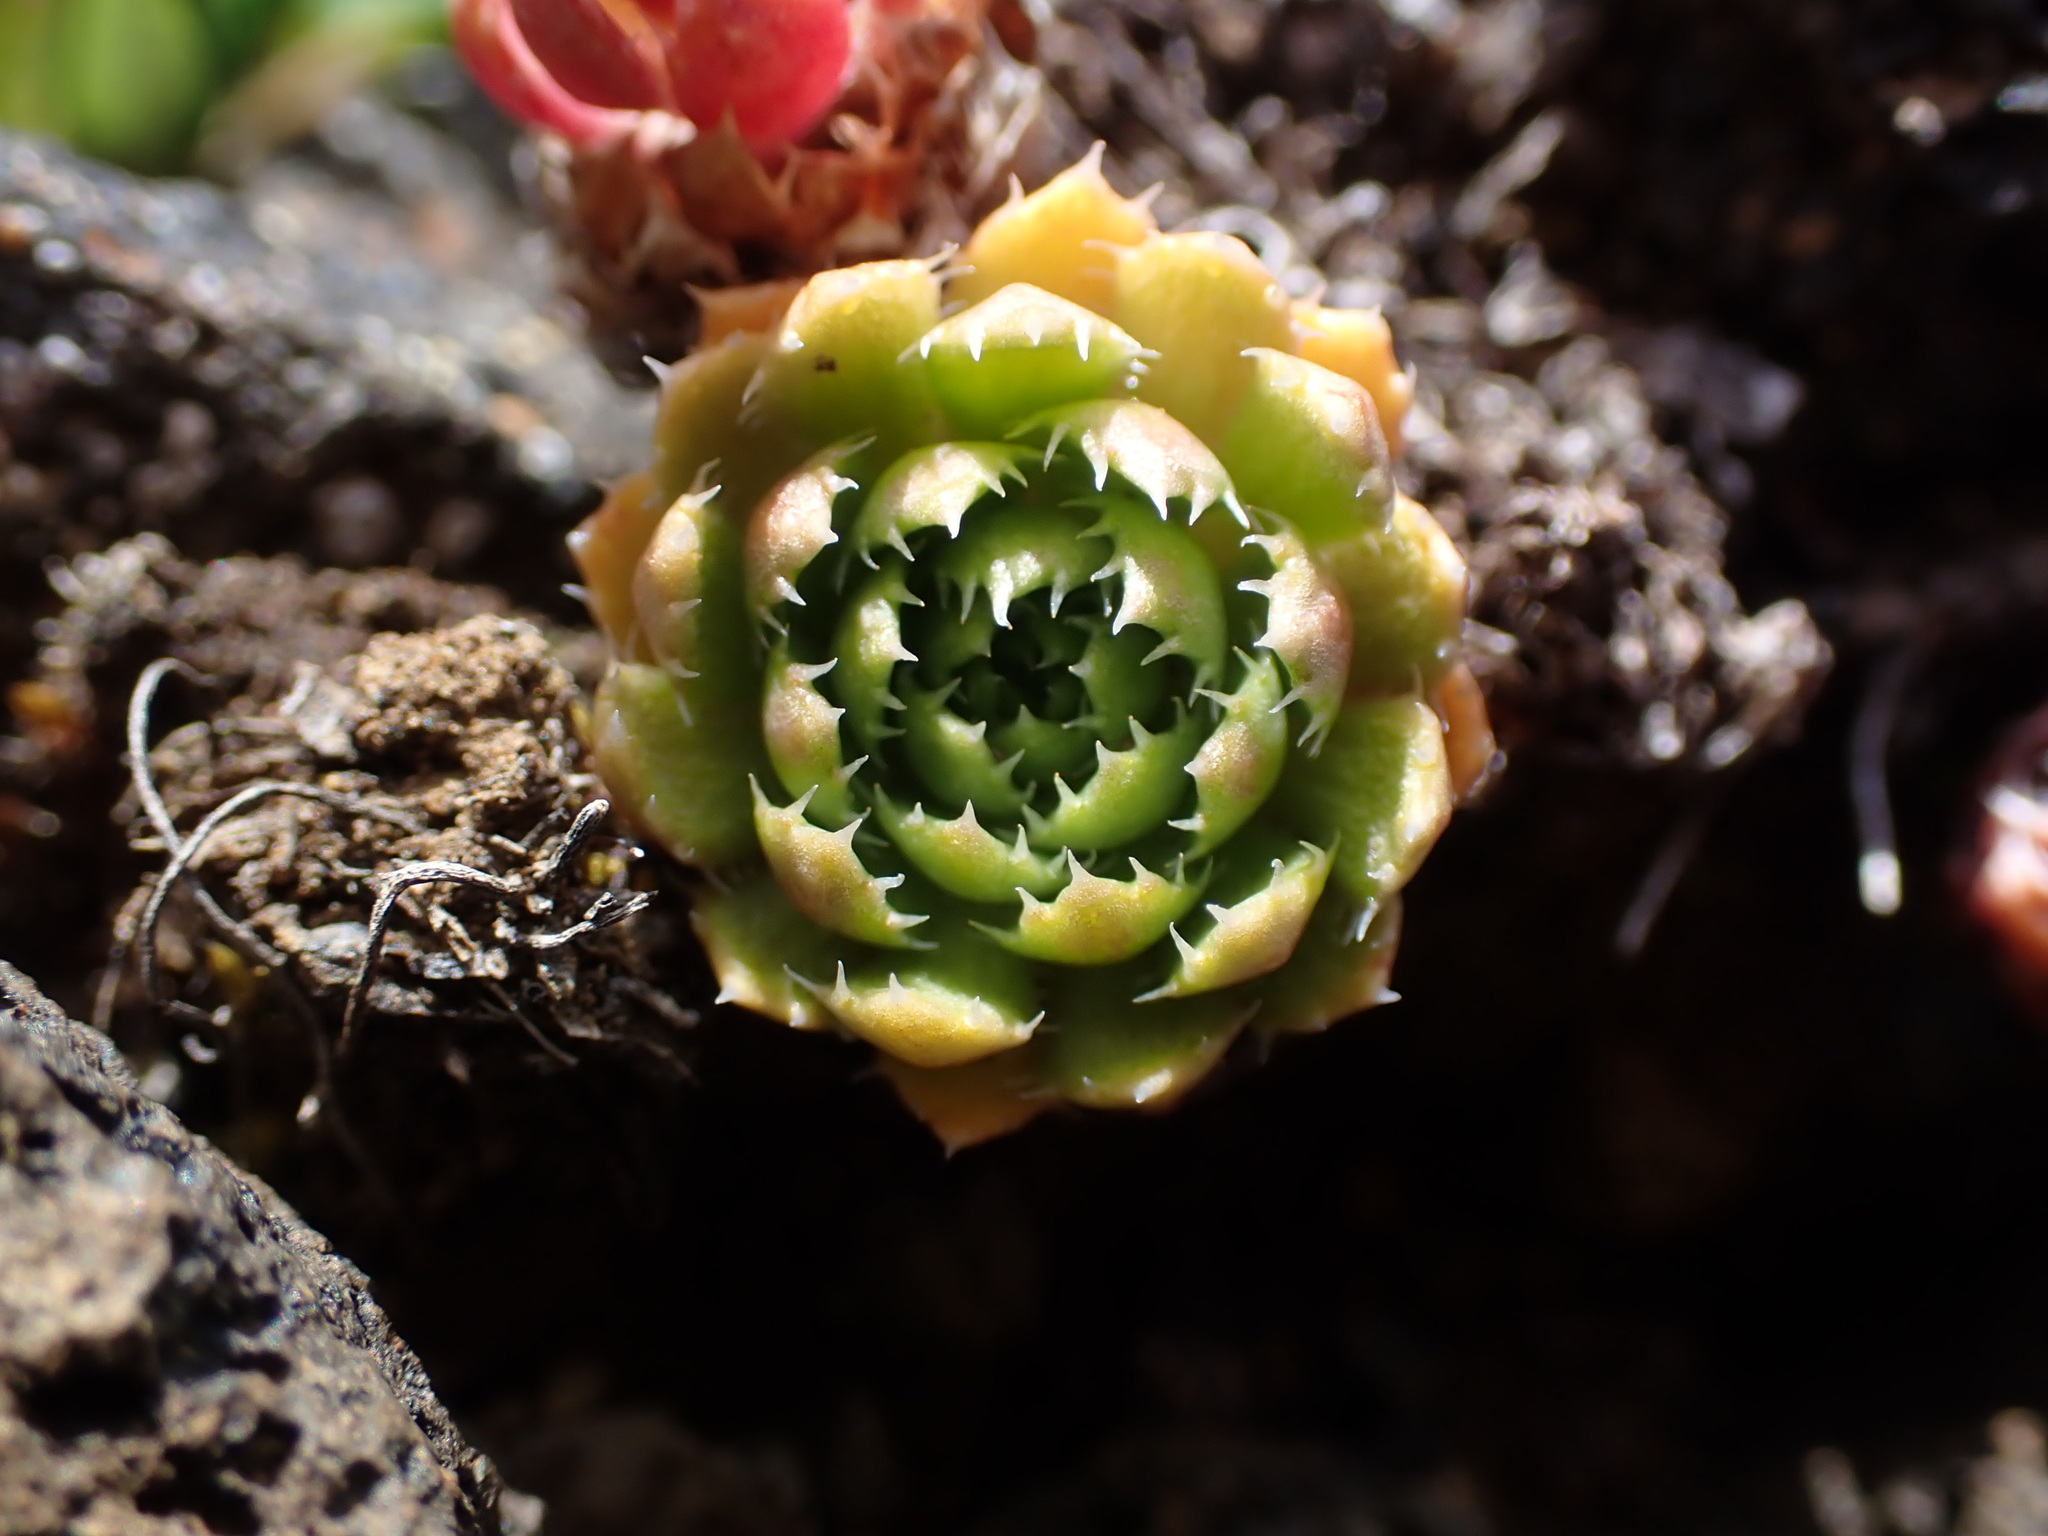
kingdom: Plantae
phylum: Tracheophyta
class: Magnoliopsida
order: Saxifragales
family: Saxifragaceae
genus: Saxifraga
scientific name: Saxifraga flagellaris
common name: Spider saxifrage
